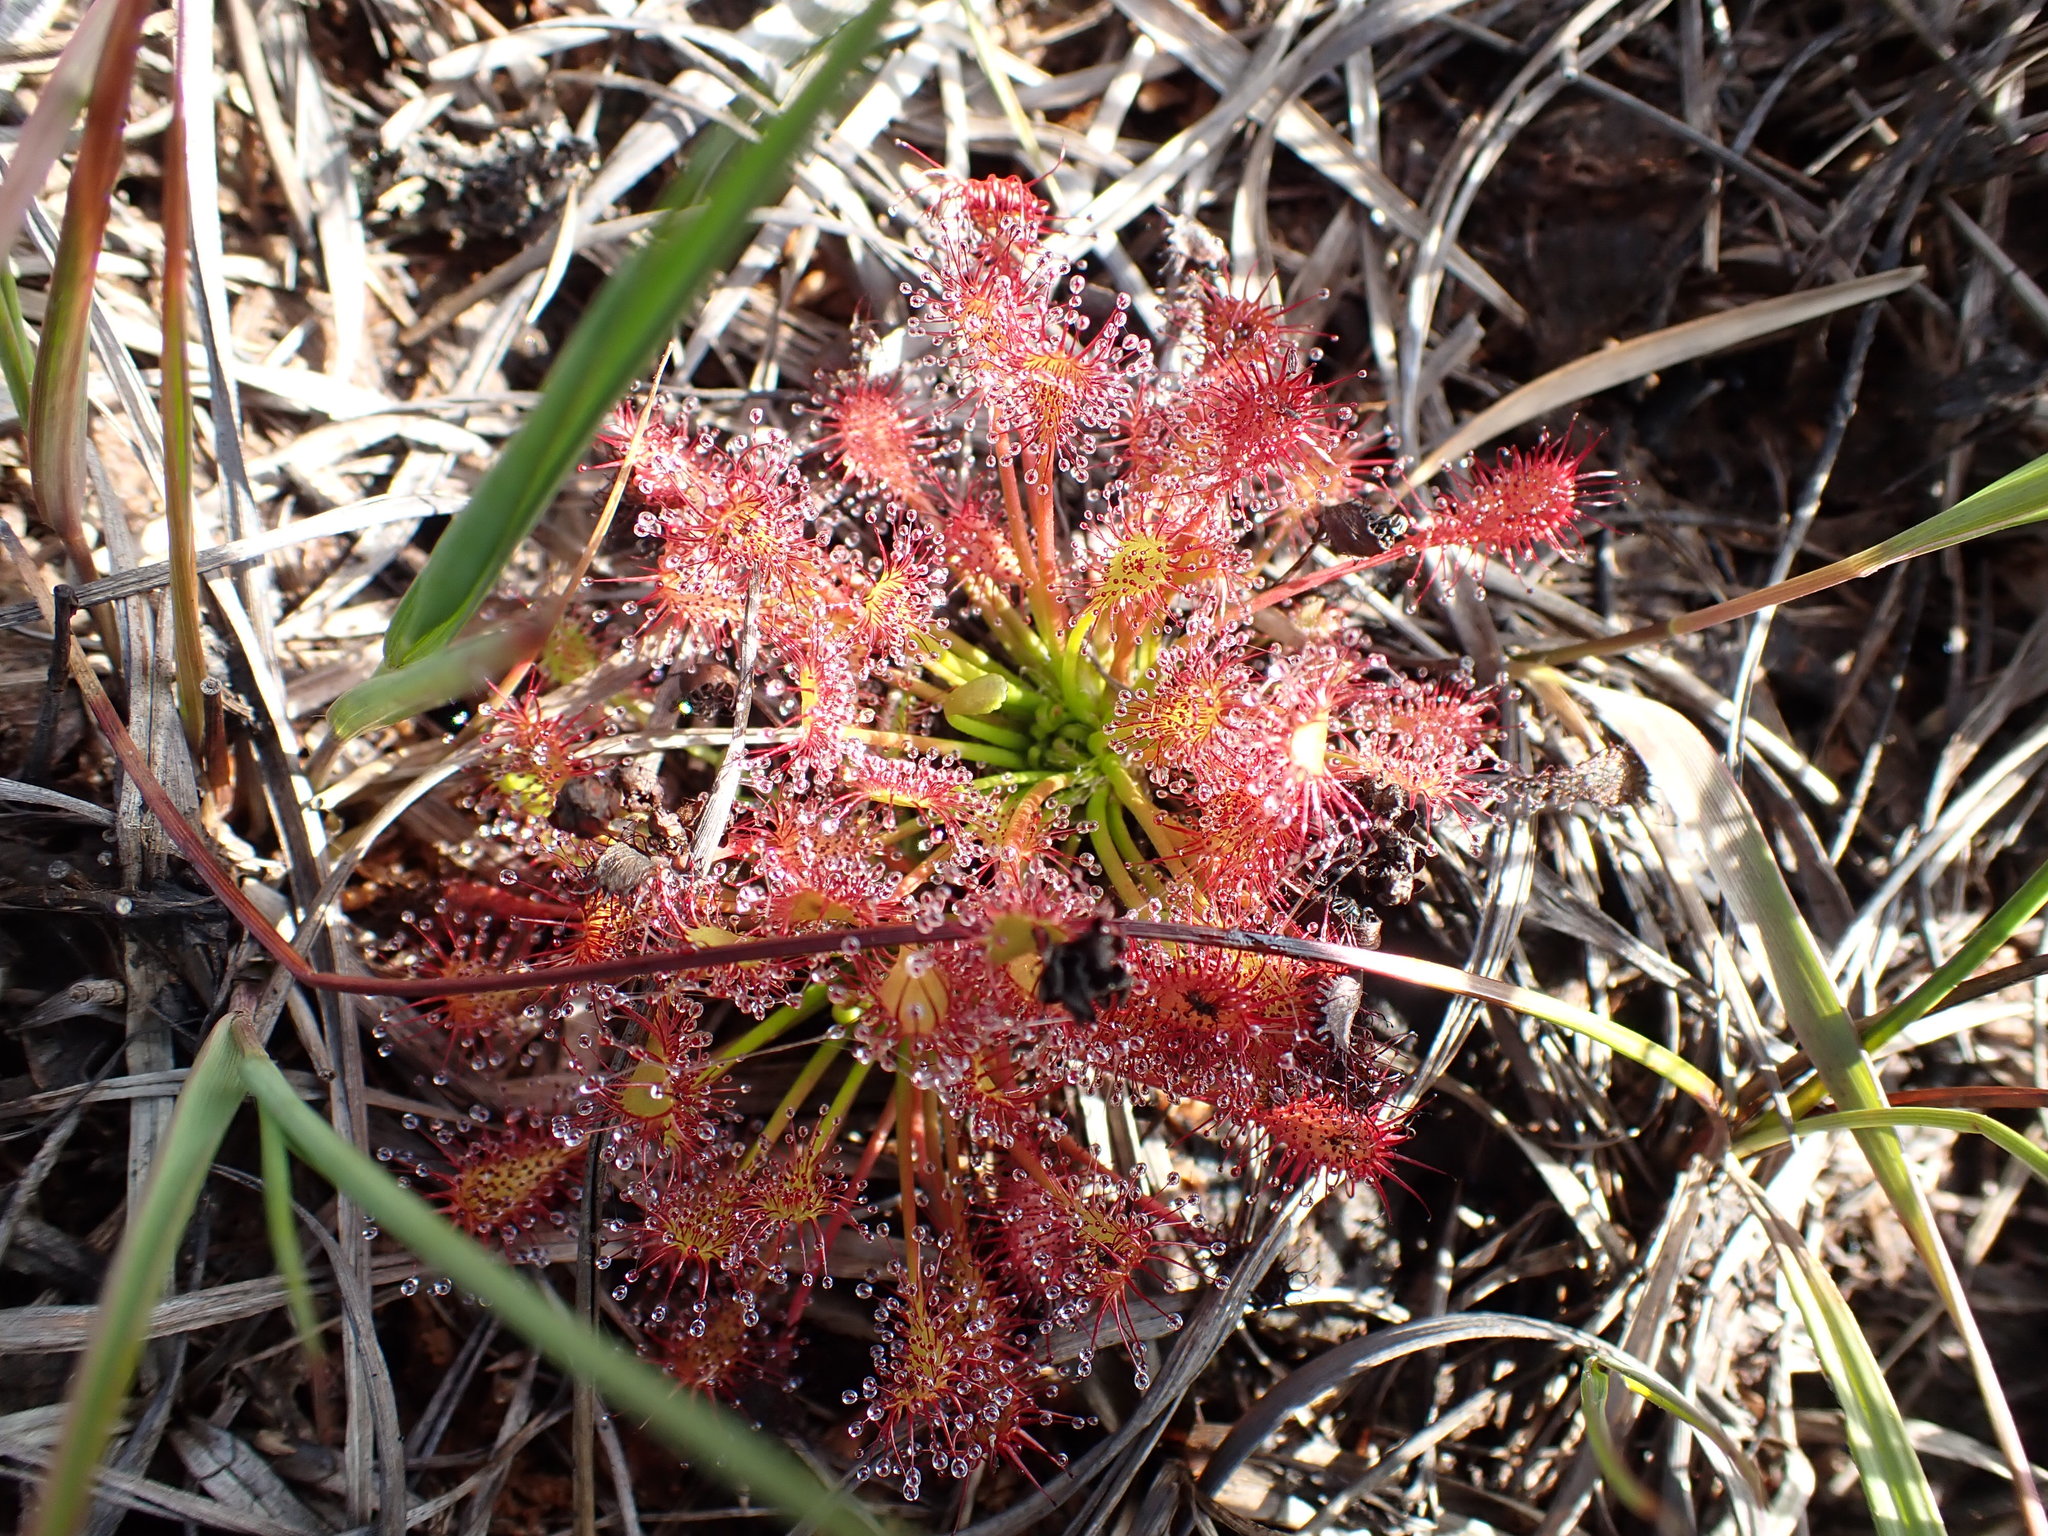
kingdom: Plantae
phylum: Tracheophyta
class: Magnoliopsida
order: Caryophyllales
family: Droseraceae
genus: Drosera
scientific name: Drosera intermedia
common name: Oblong-leaved sundew
